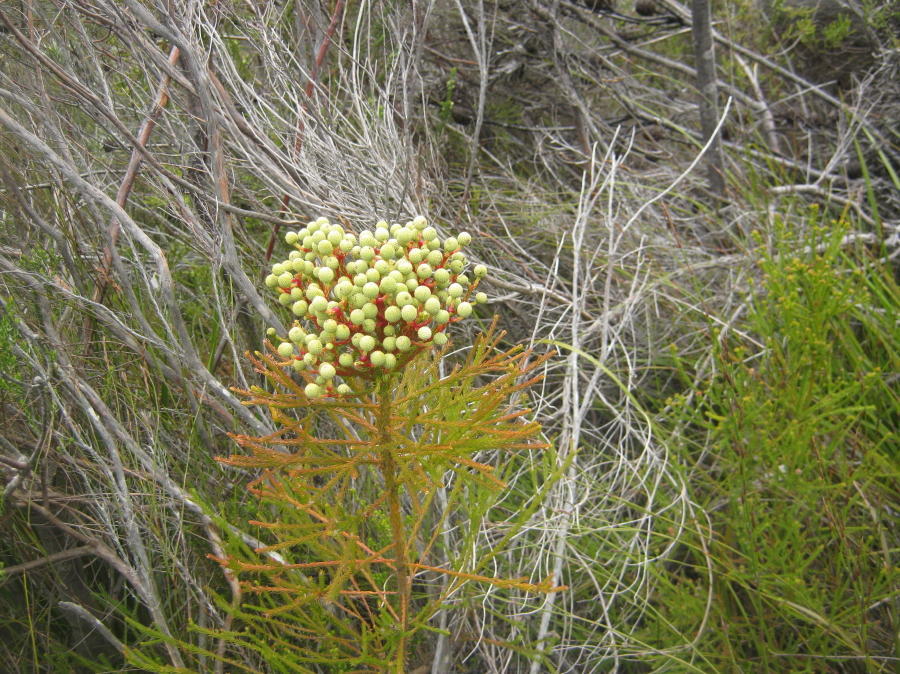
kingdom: Plantae
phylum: Tracheophyta
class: Magnoliopsida
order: Bruniales
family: Bruniaceae
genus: Berzelia
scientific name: Berzelia intermedia
